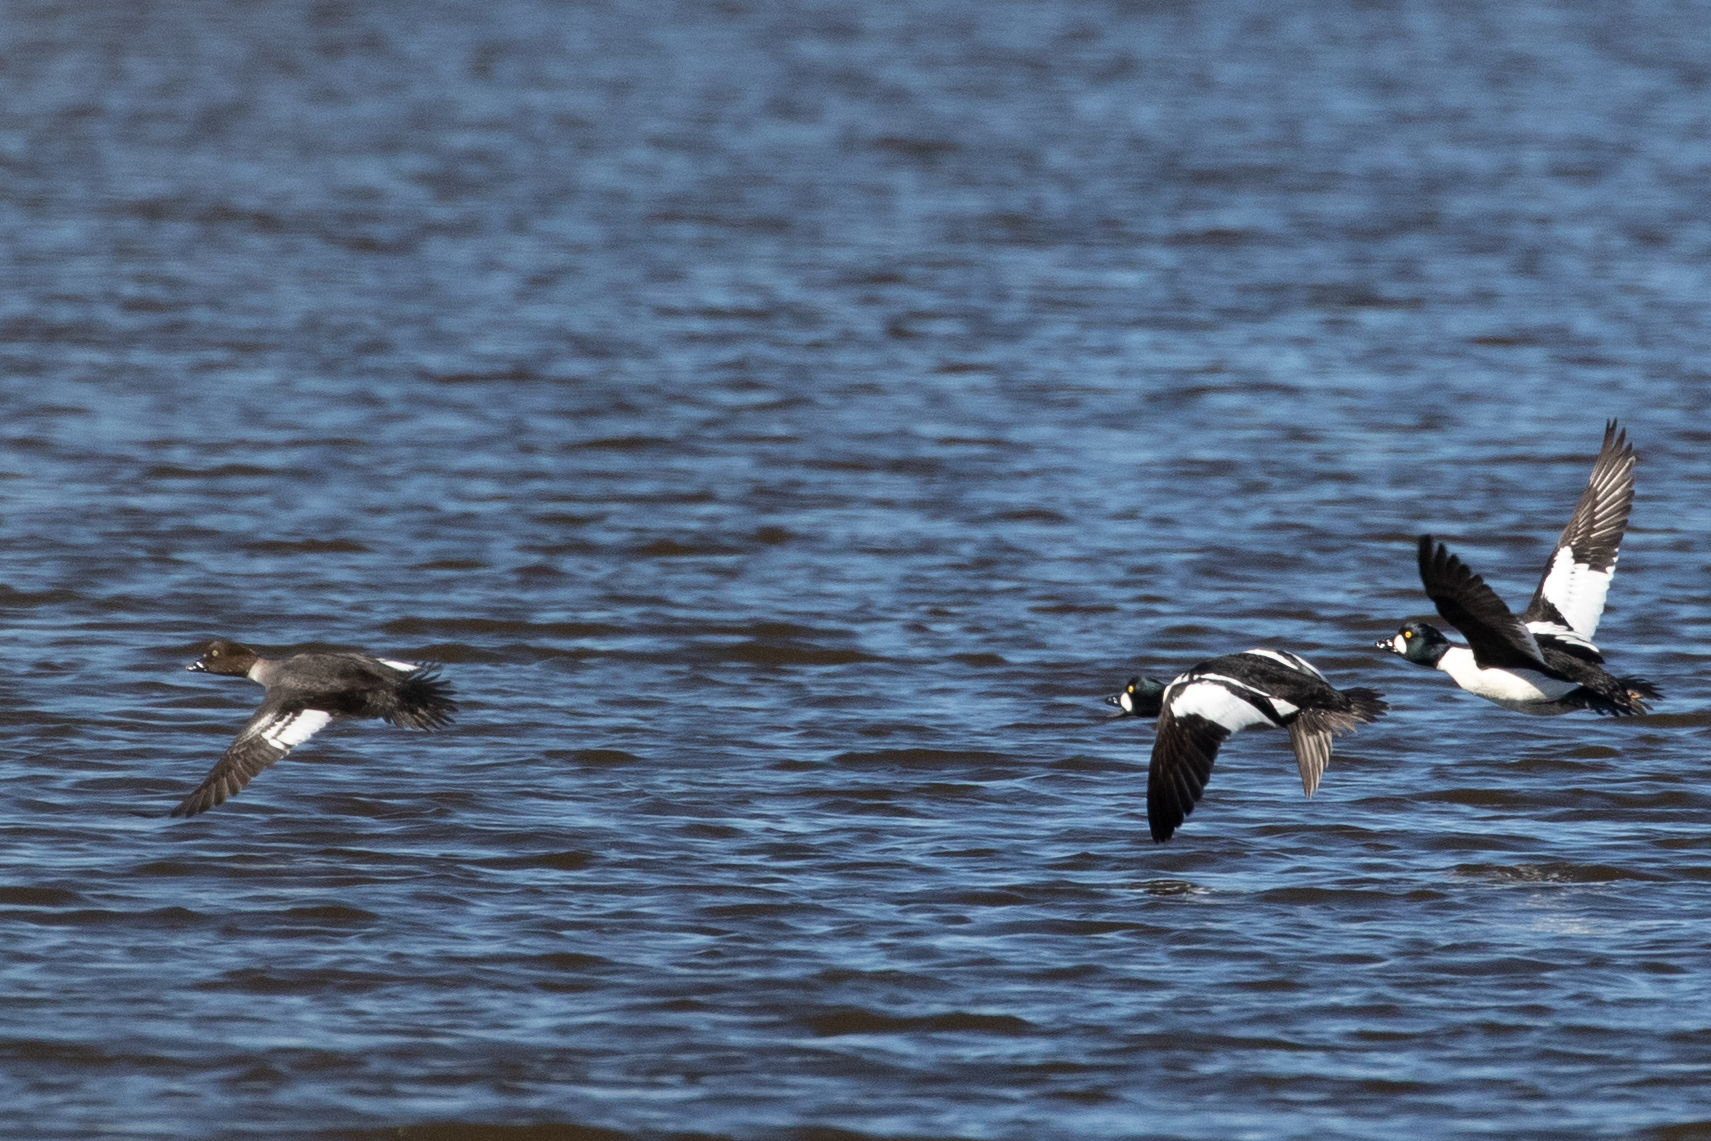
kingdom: Animalia
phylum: Chordata
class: Aves
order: Anseriformes
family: Anatidae
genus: Bucephala
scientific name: Bucephala clangula
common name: Common goldeneye
